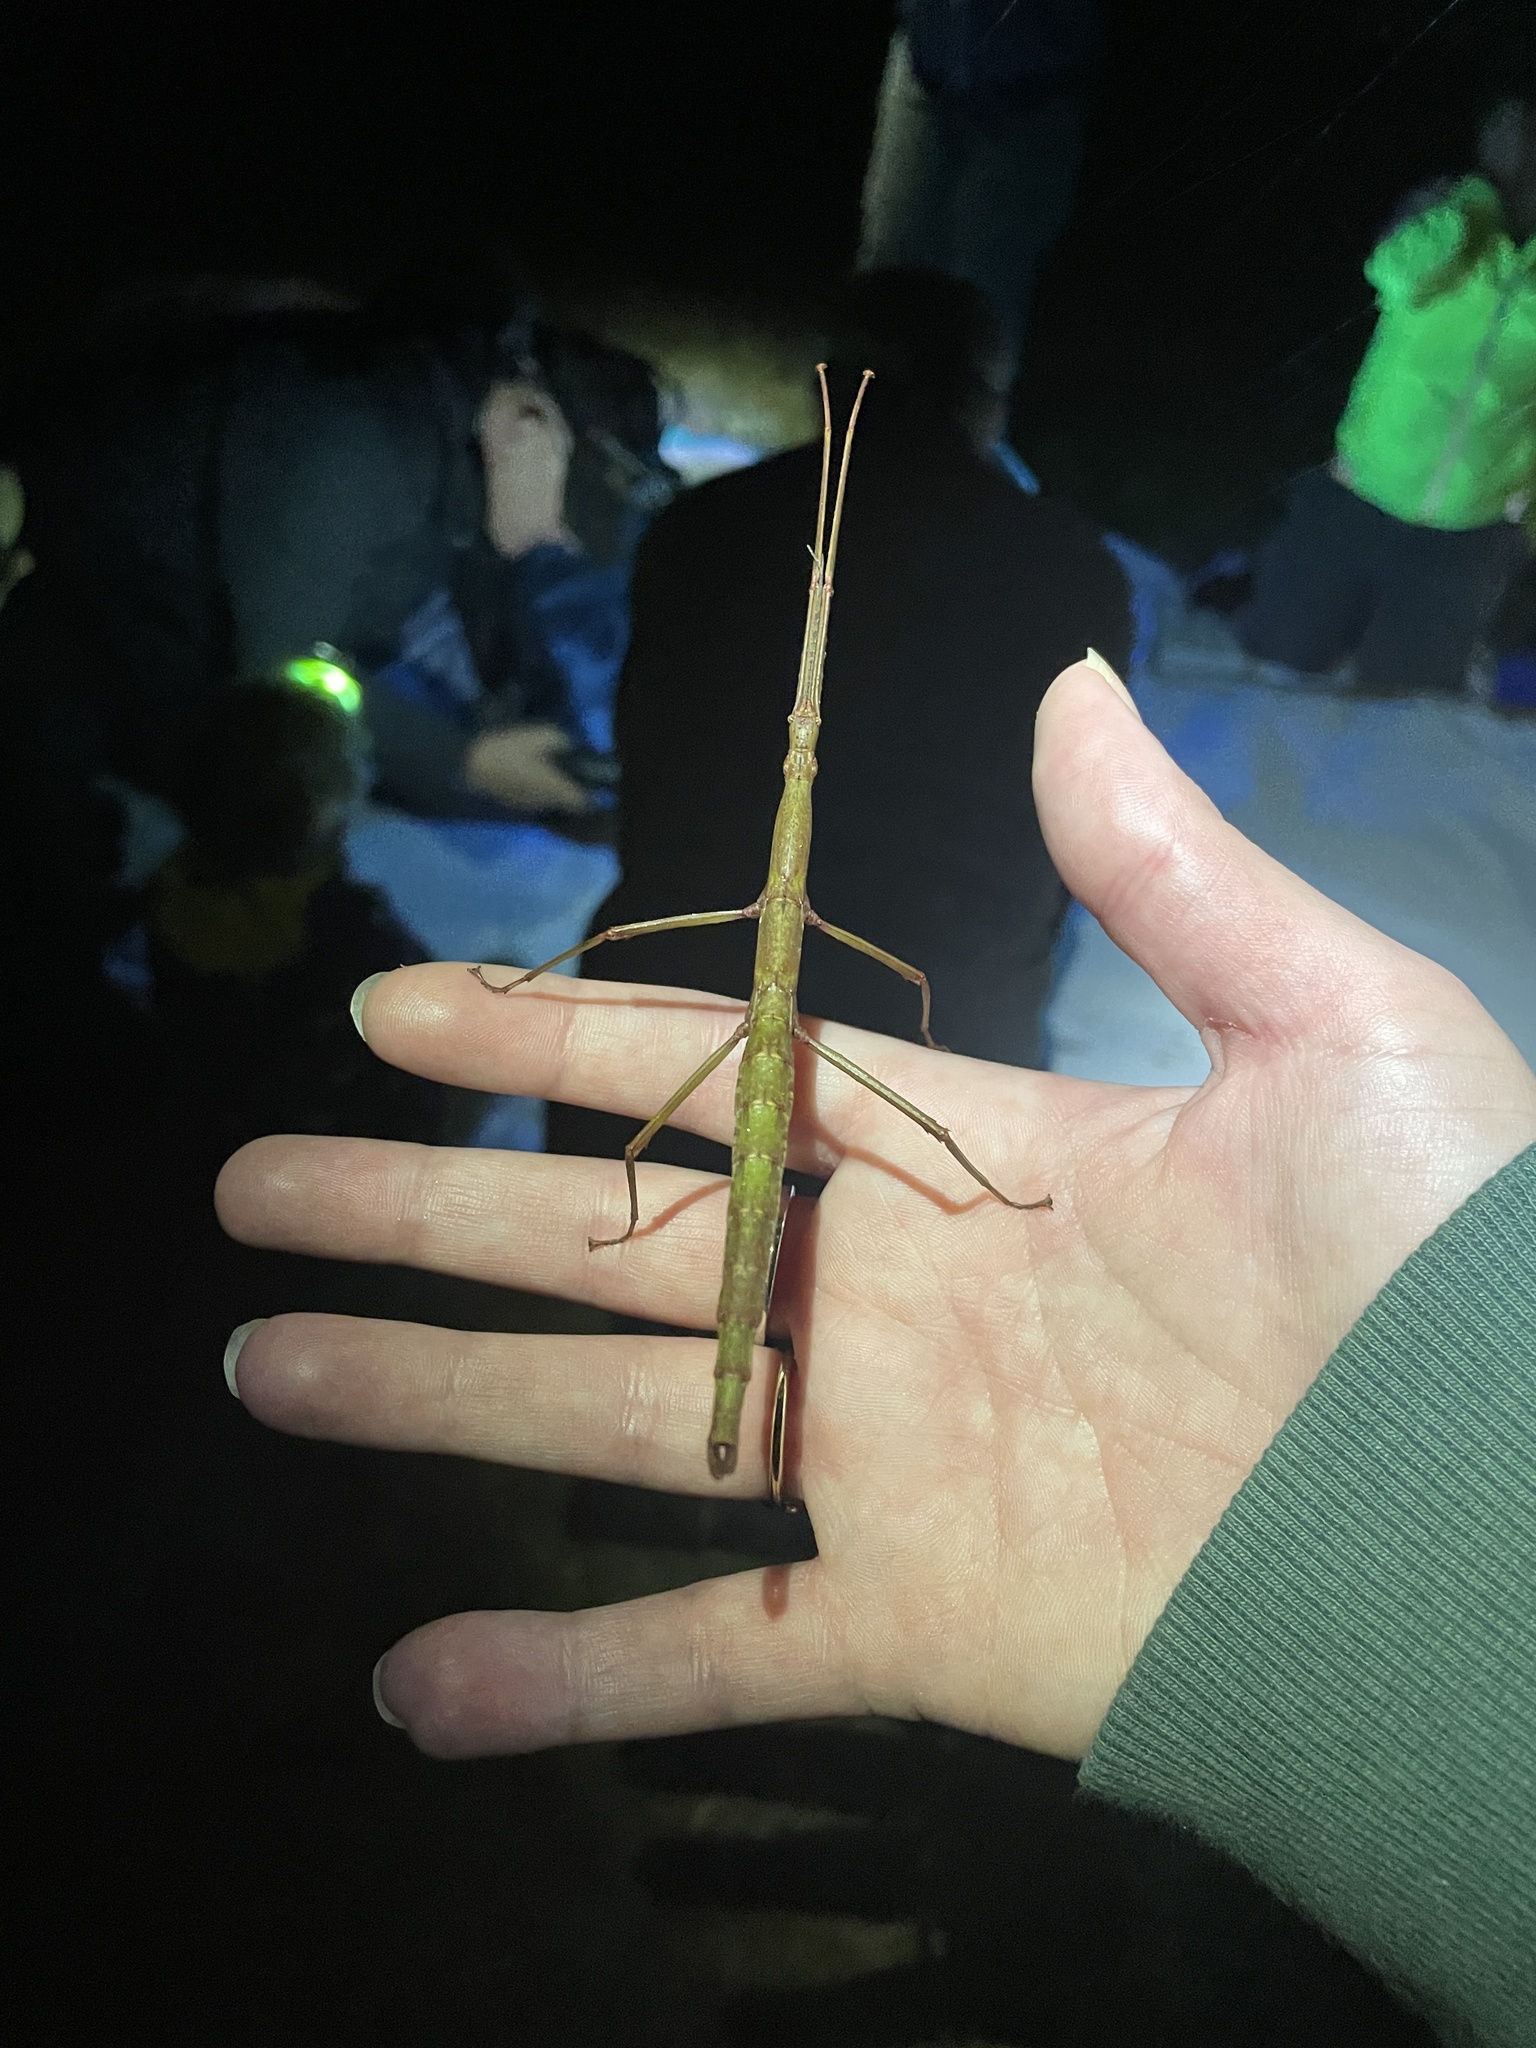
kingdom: Animalia
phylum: Arthropoda
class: Insecta
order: Phasmida
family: Phasmatidae
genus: Acanthoxyla
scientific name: Acanthoxyla inermis
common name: Unarmed stick insect
